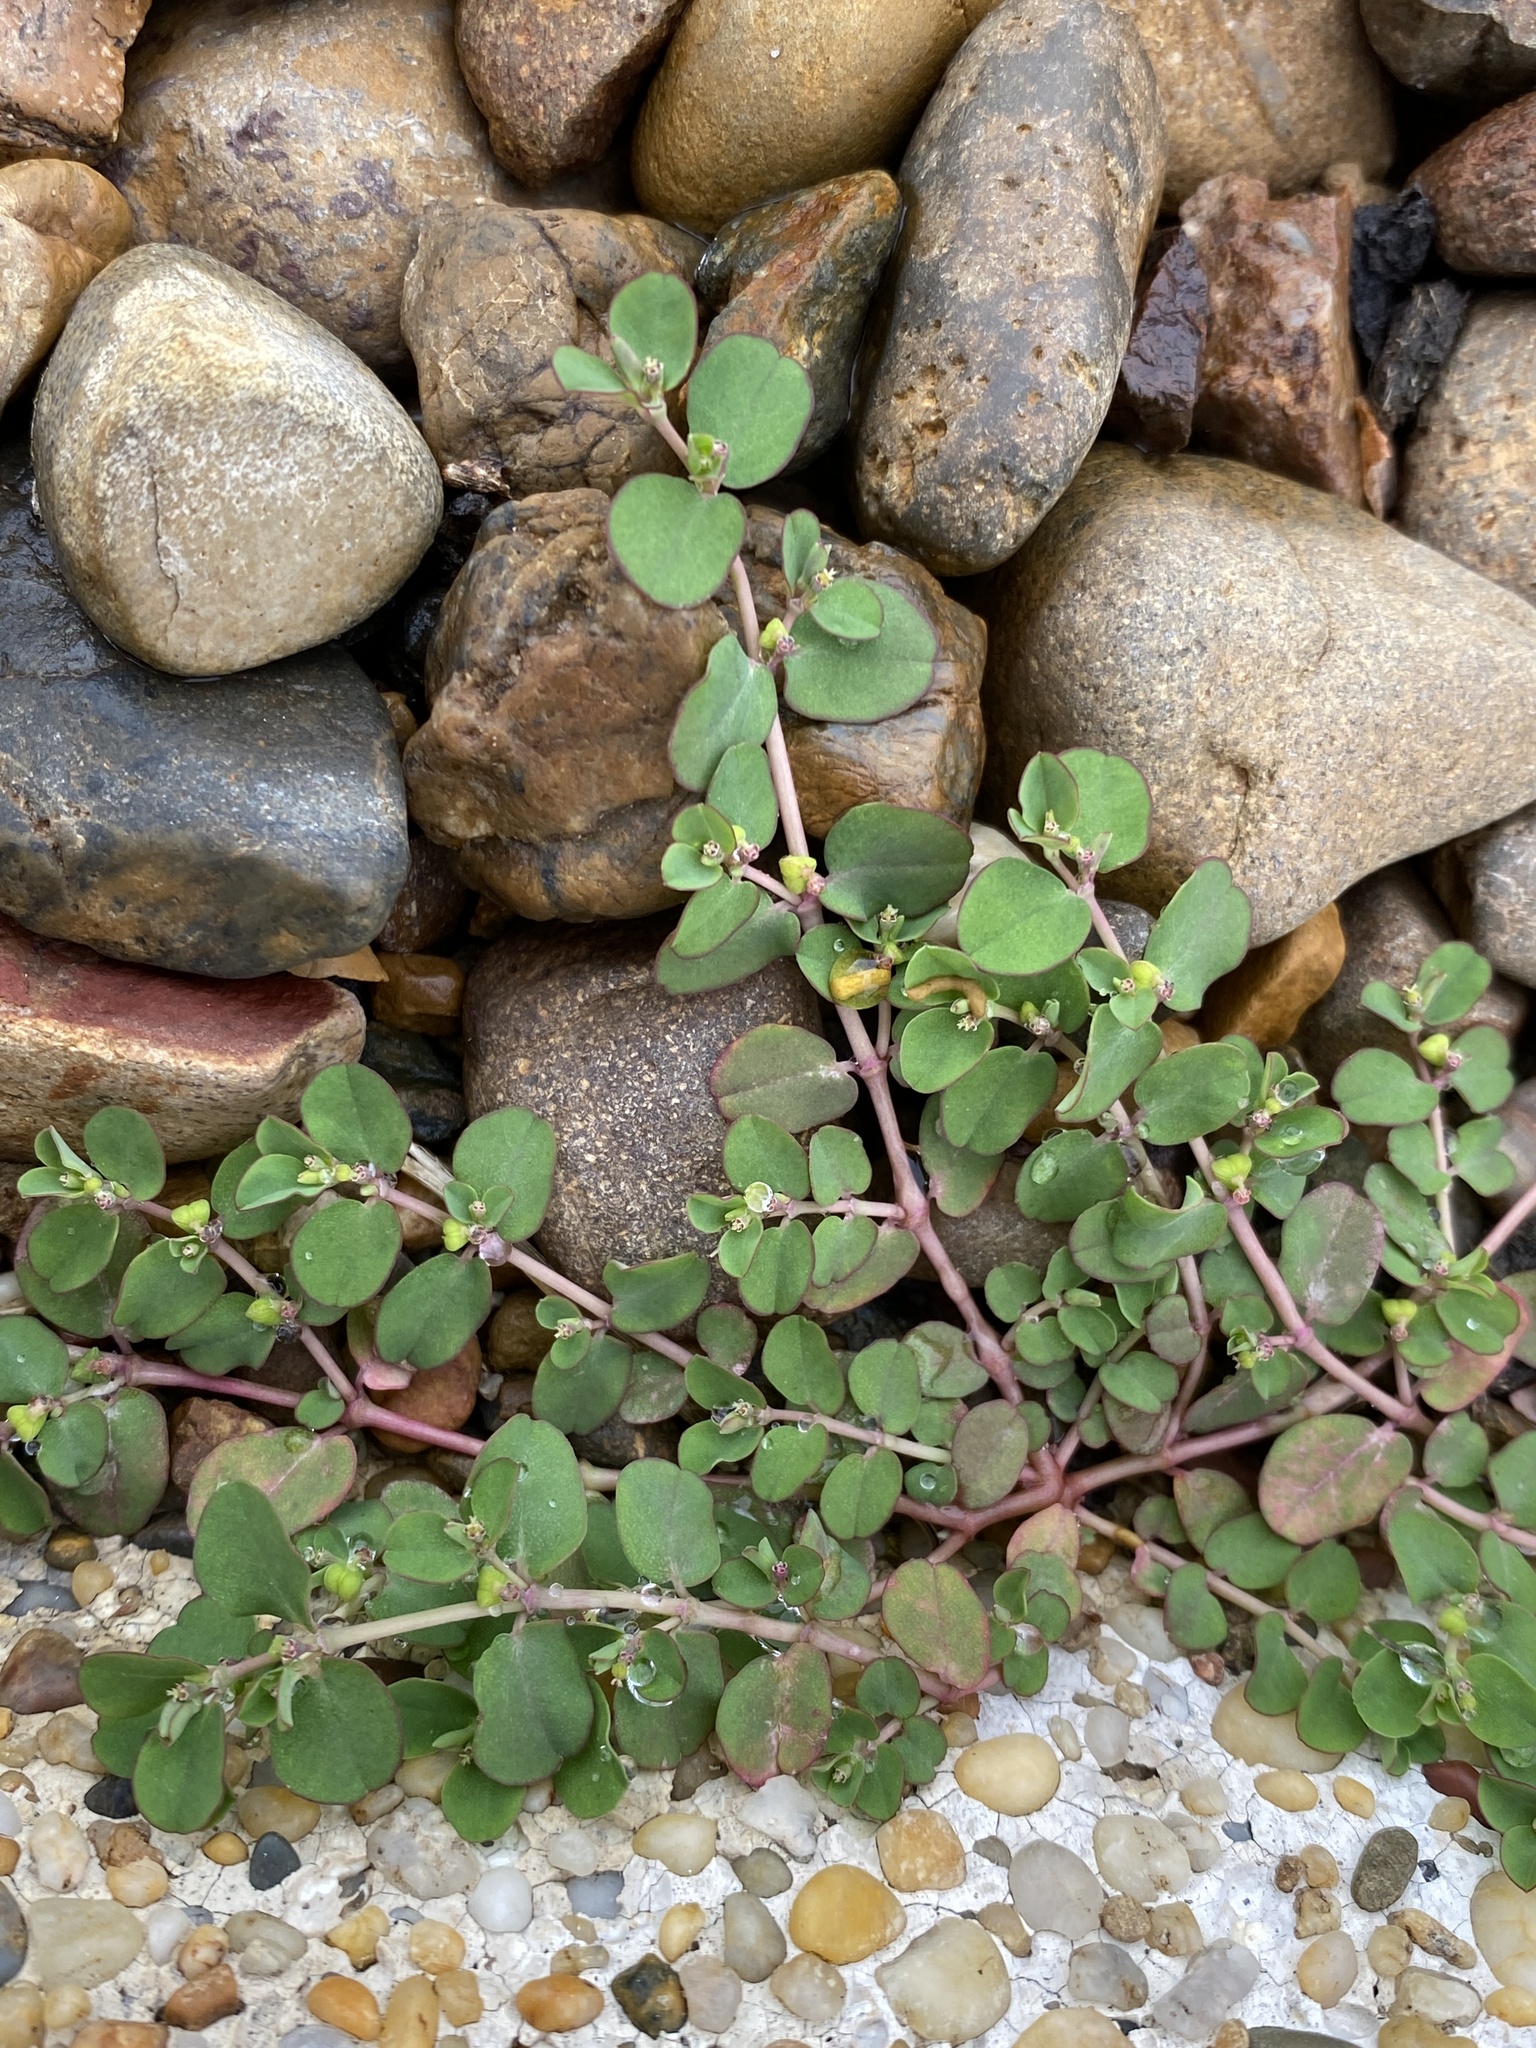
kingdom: Plantae
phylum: Tracheophyta
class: Magnoliopsida
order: Malpighiales
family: Euphorbiaceae
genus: Euphorbia
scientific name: Euphorbia serpens
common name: Matted sandmat
